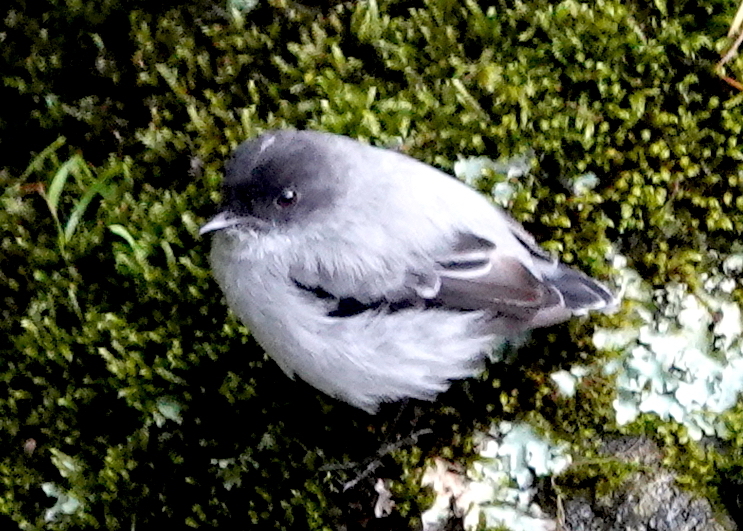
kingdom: Animalia
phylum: Chordata
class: Aves
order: Passeriformes
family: Tyrannidae
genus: Serpophaga
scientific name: Serpophaga cinerea
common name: Torrent tyrannulet
